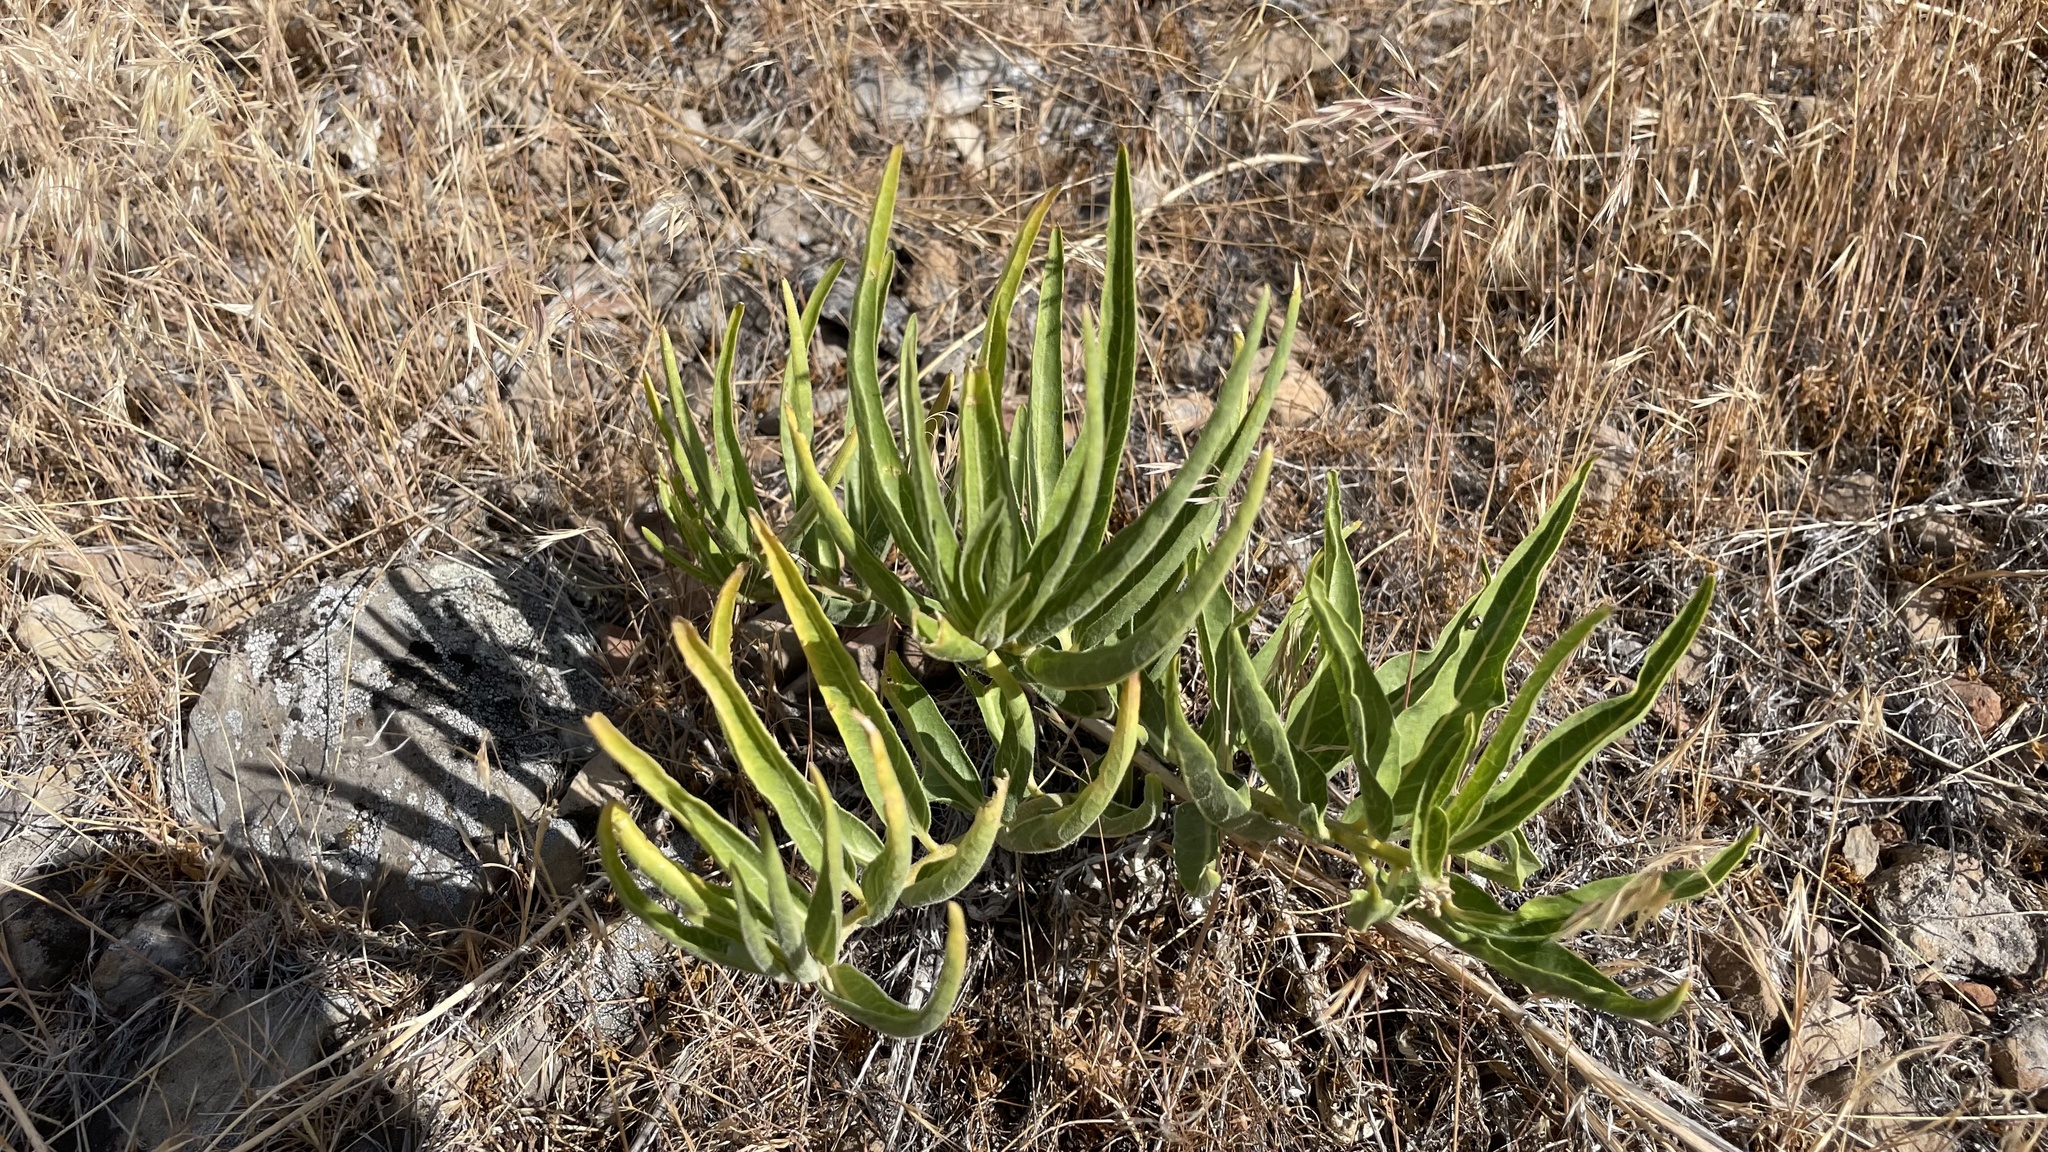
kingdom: Plantae
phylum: Tracheophyta
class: Magnoliopsida
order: Gentianales
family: Apocynaceae
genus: Asclepias
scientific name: Asclepias asperula
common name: Antelope horns
